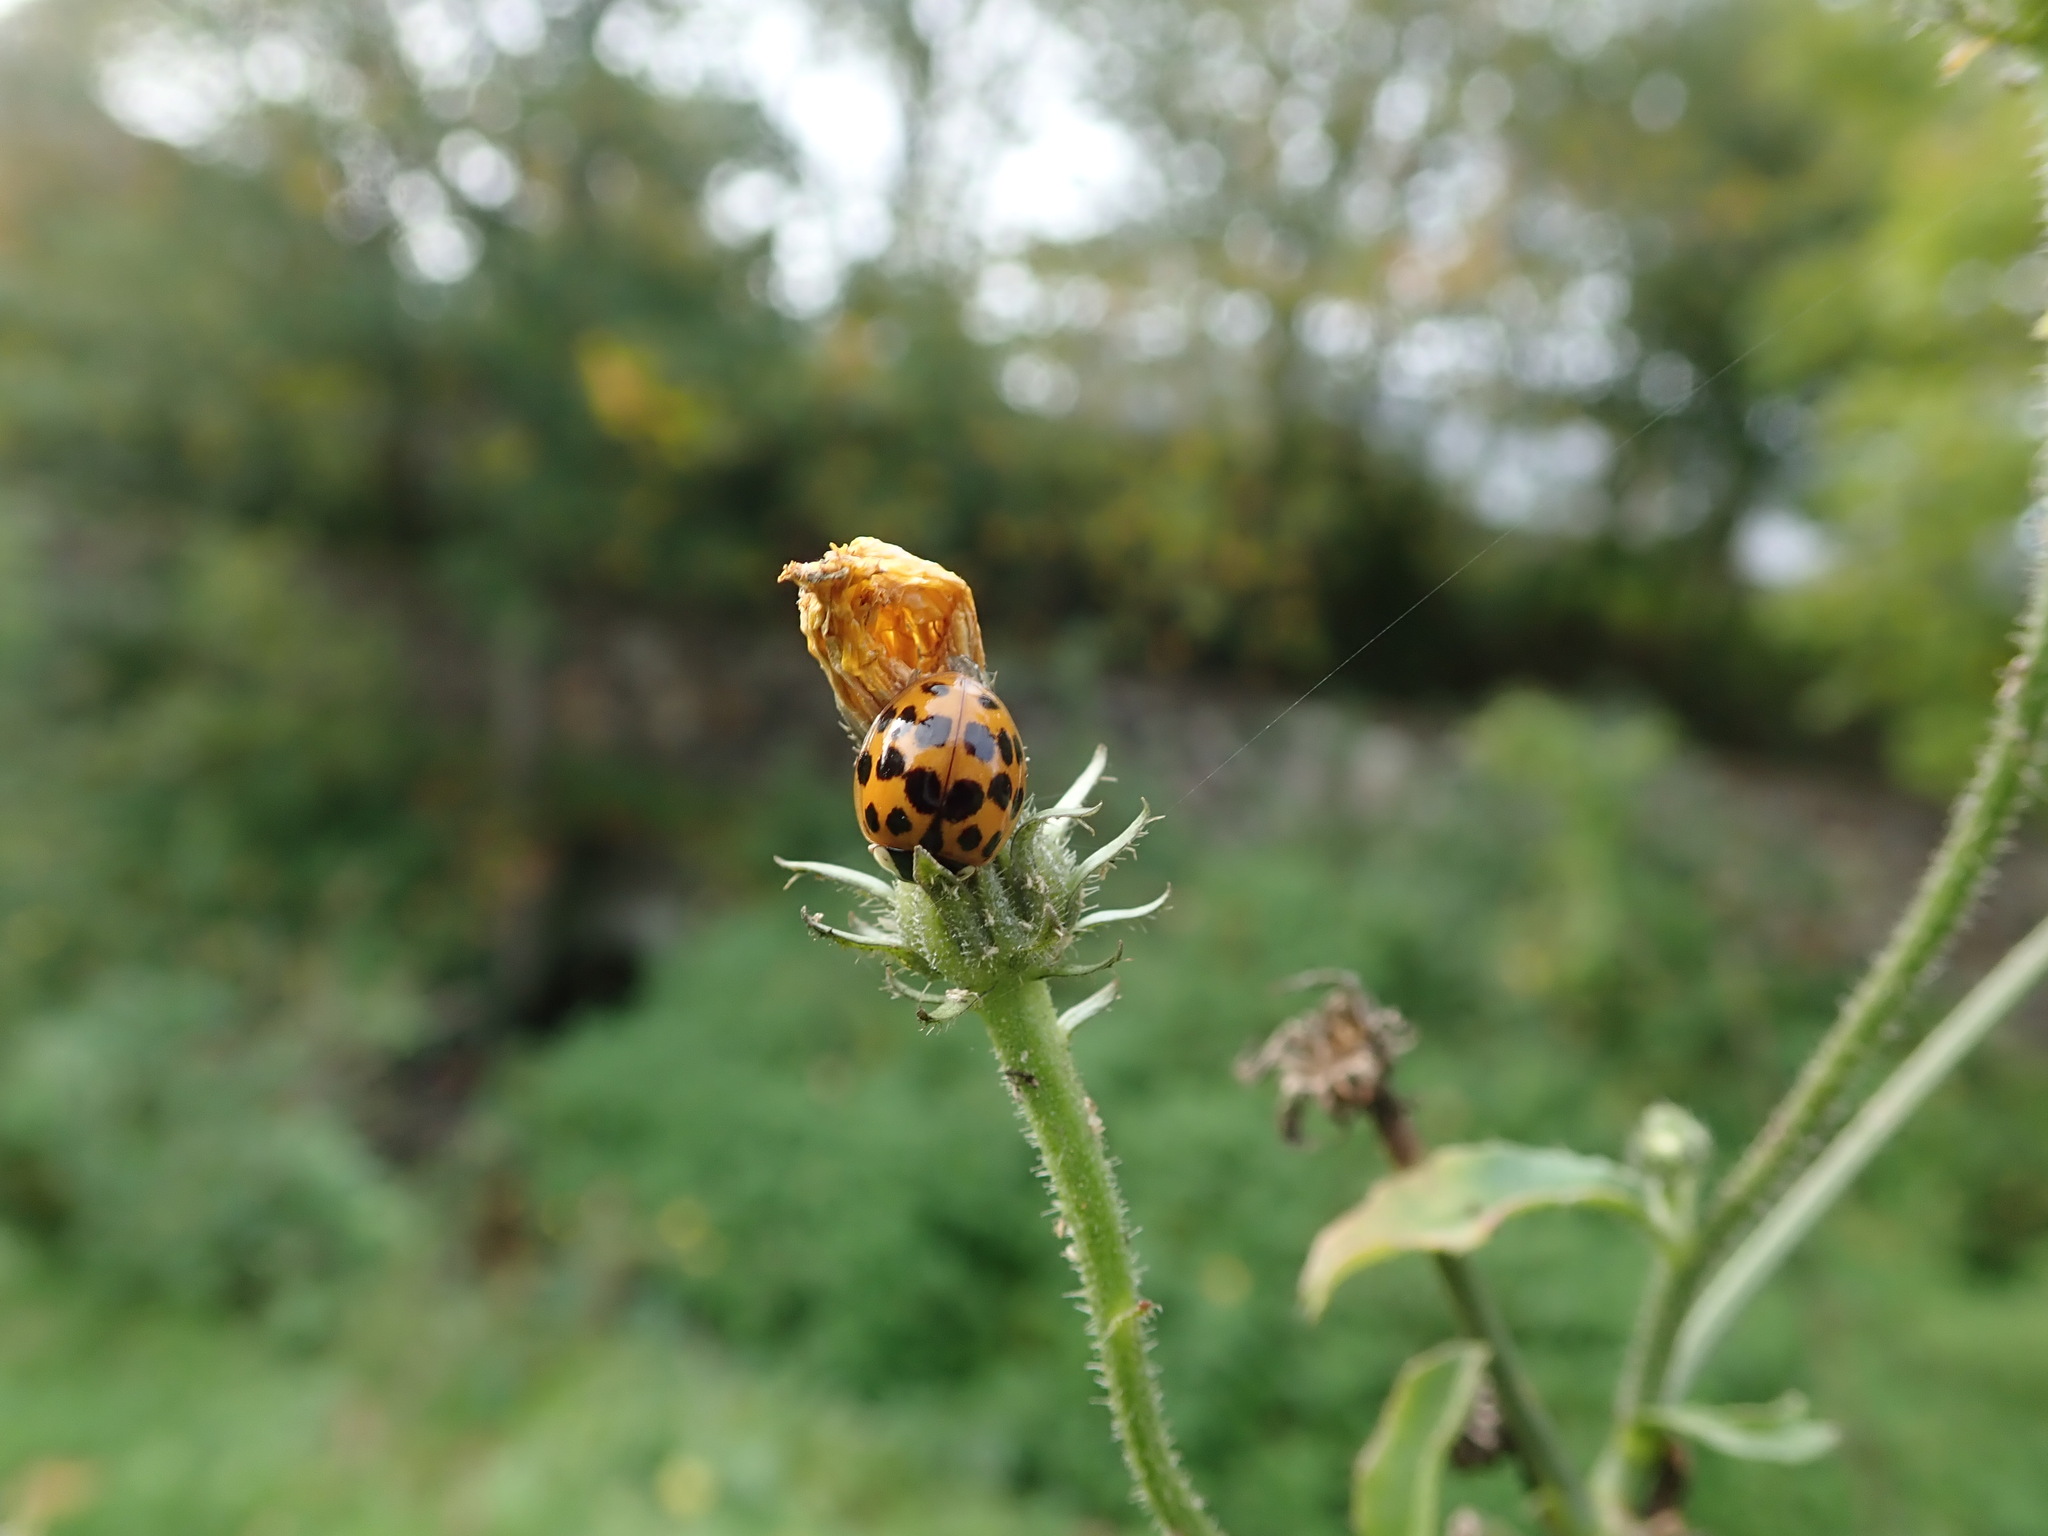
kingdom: Animalia
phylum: Arthropoda
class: Insecta
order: Coleoptera
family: Coccinellidae
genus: Harmonia
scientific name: Harmonia axyridis
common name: Harlequin ladybird
